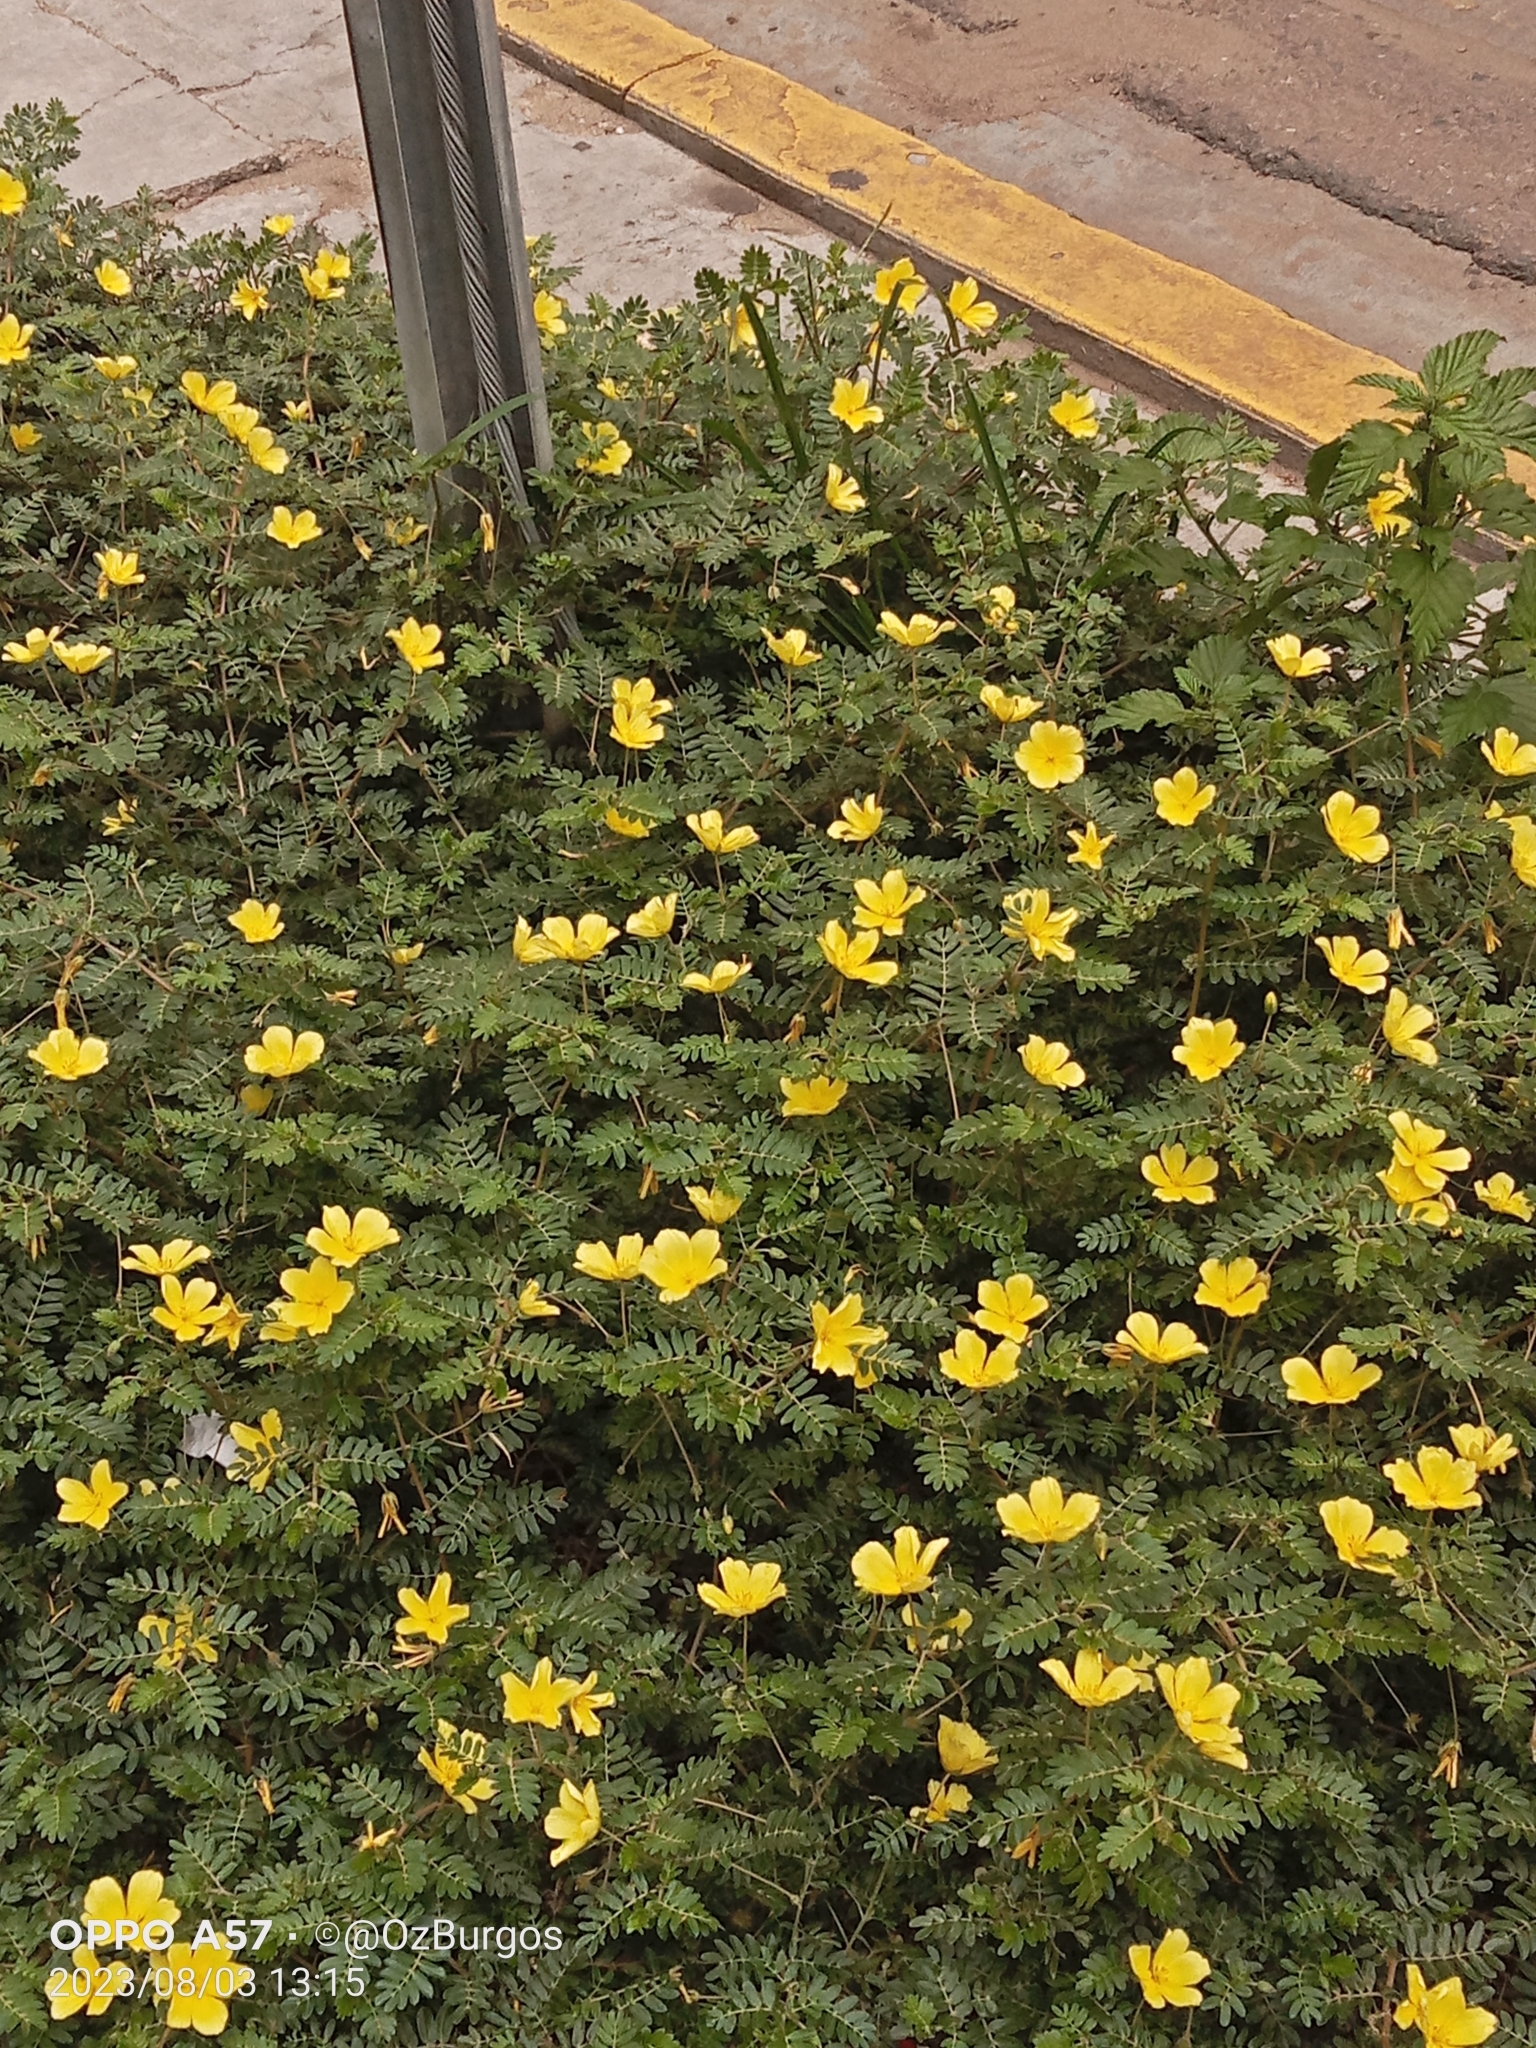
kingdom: Plantae
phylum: Tracheophyta
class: Magnoliopsida
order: Zygophyllales
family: Zygophyllaceae
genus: Tribulus
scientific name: Tribulus cistoides
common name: Jamaican feverplant
